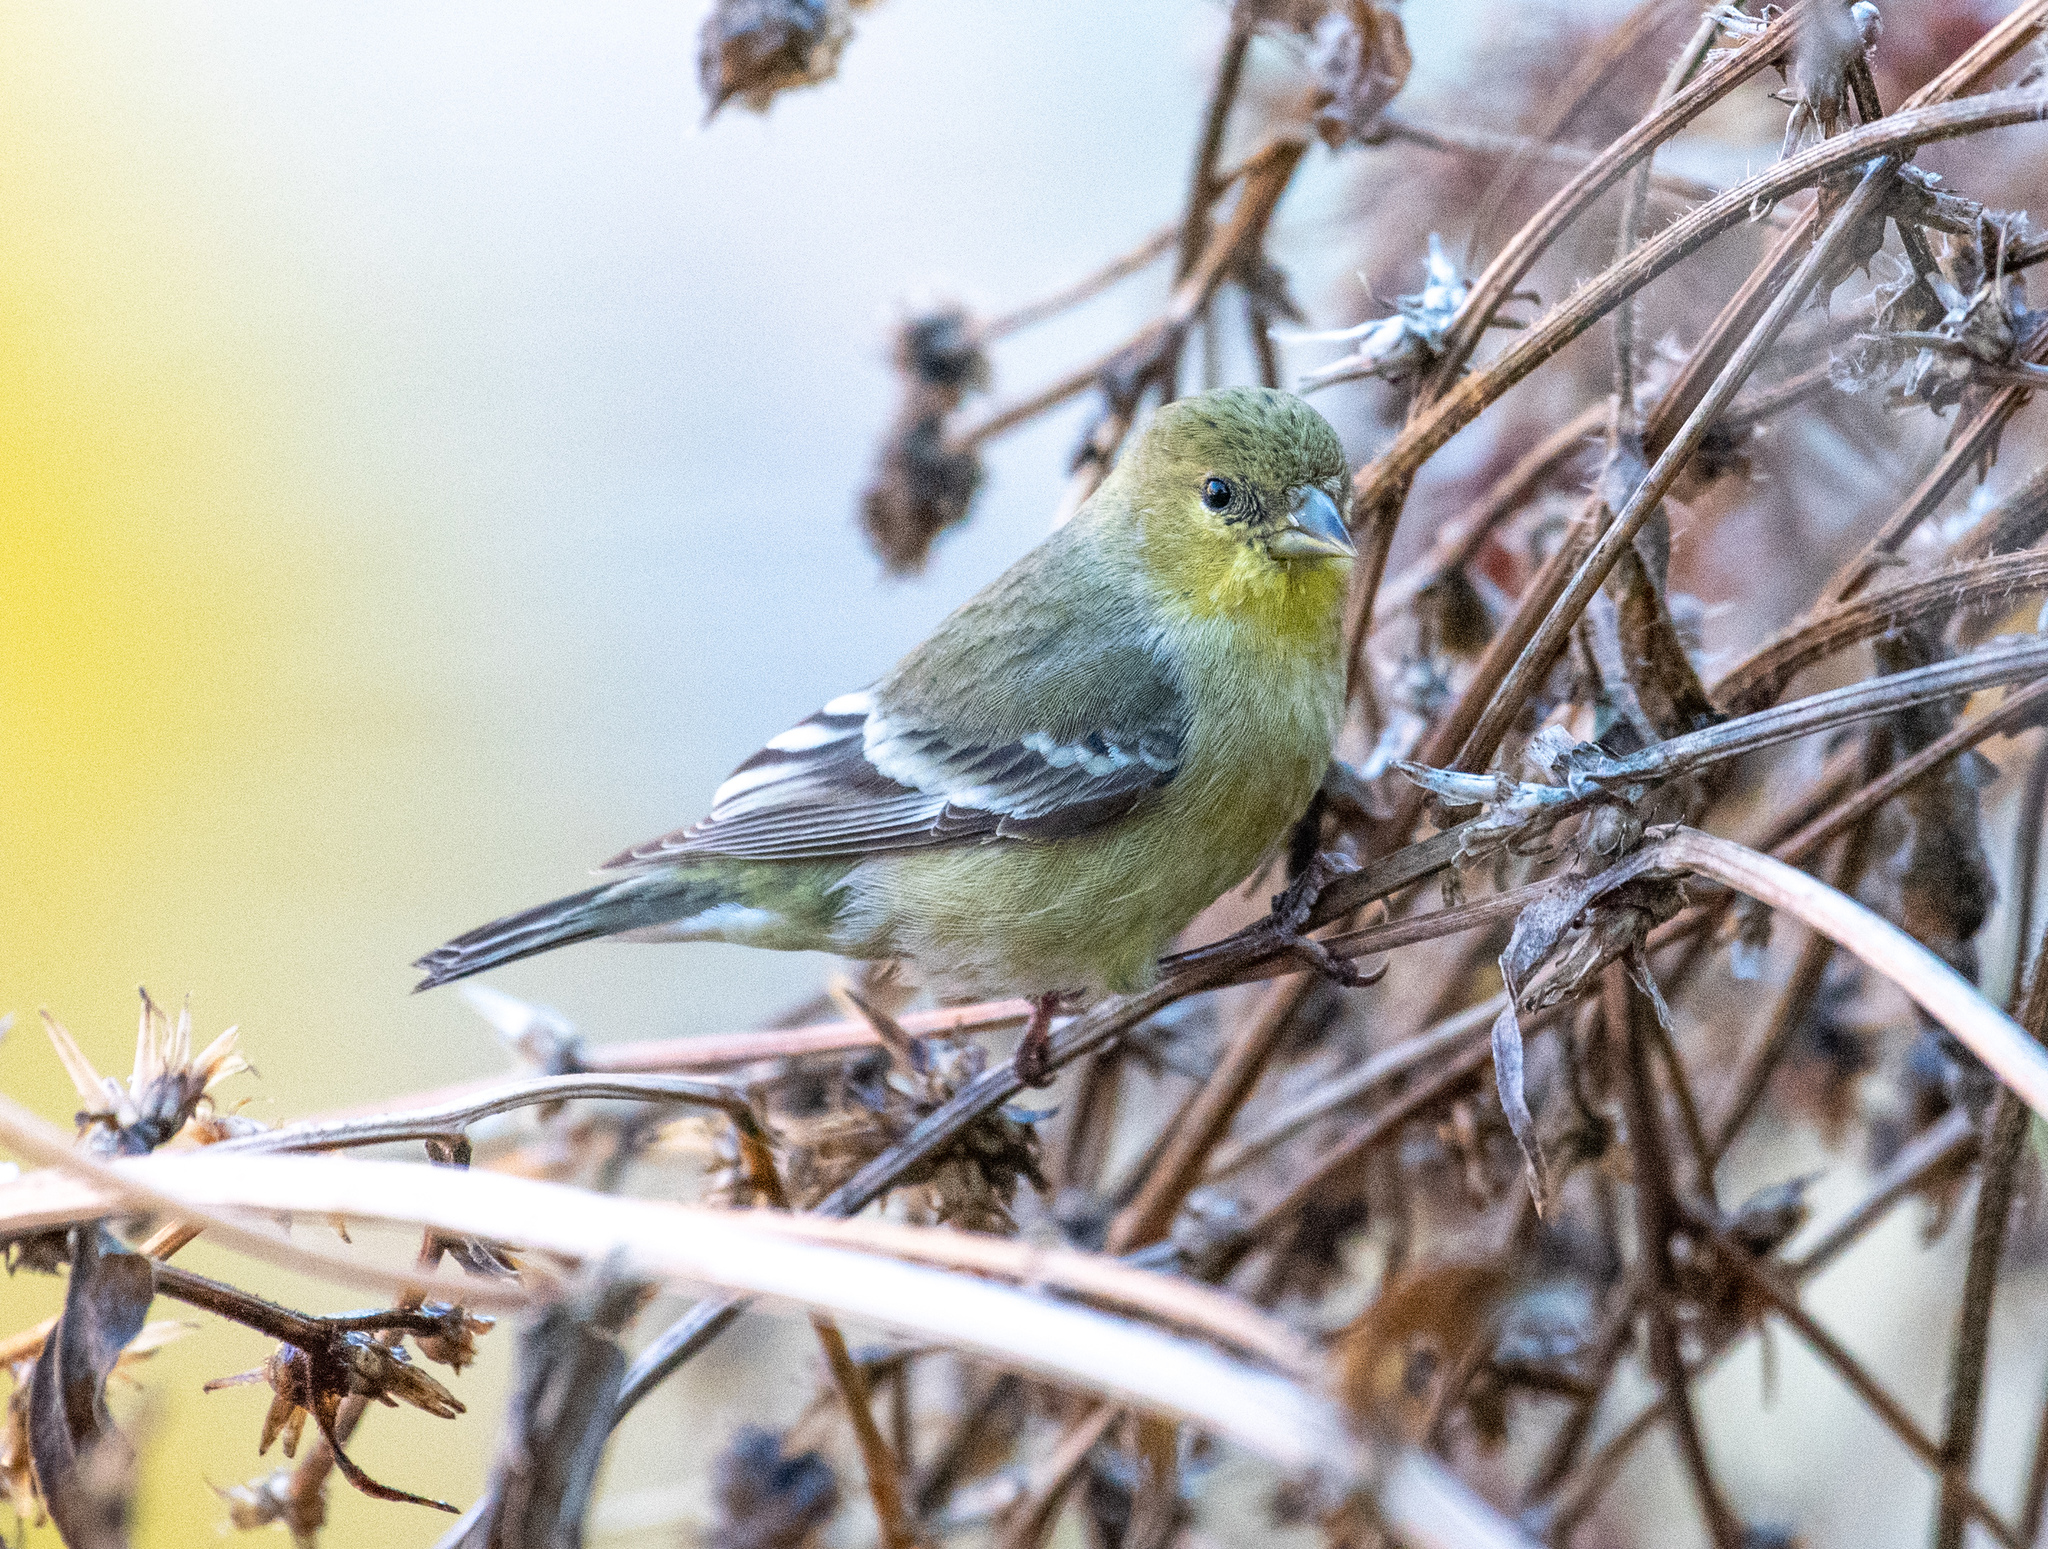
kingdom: Animalia
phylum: Chordata
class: Aves
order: Passeriformes
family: Fringillidae
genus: Spinus
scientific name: Spinus psaltria
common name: Lesser goldfinch
